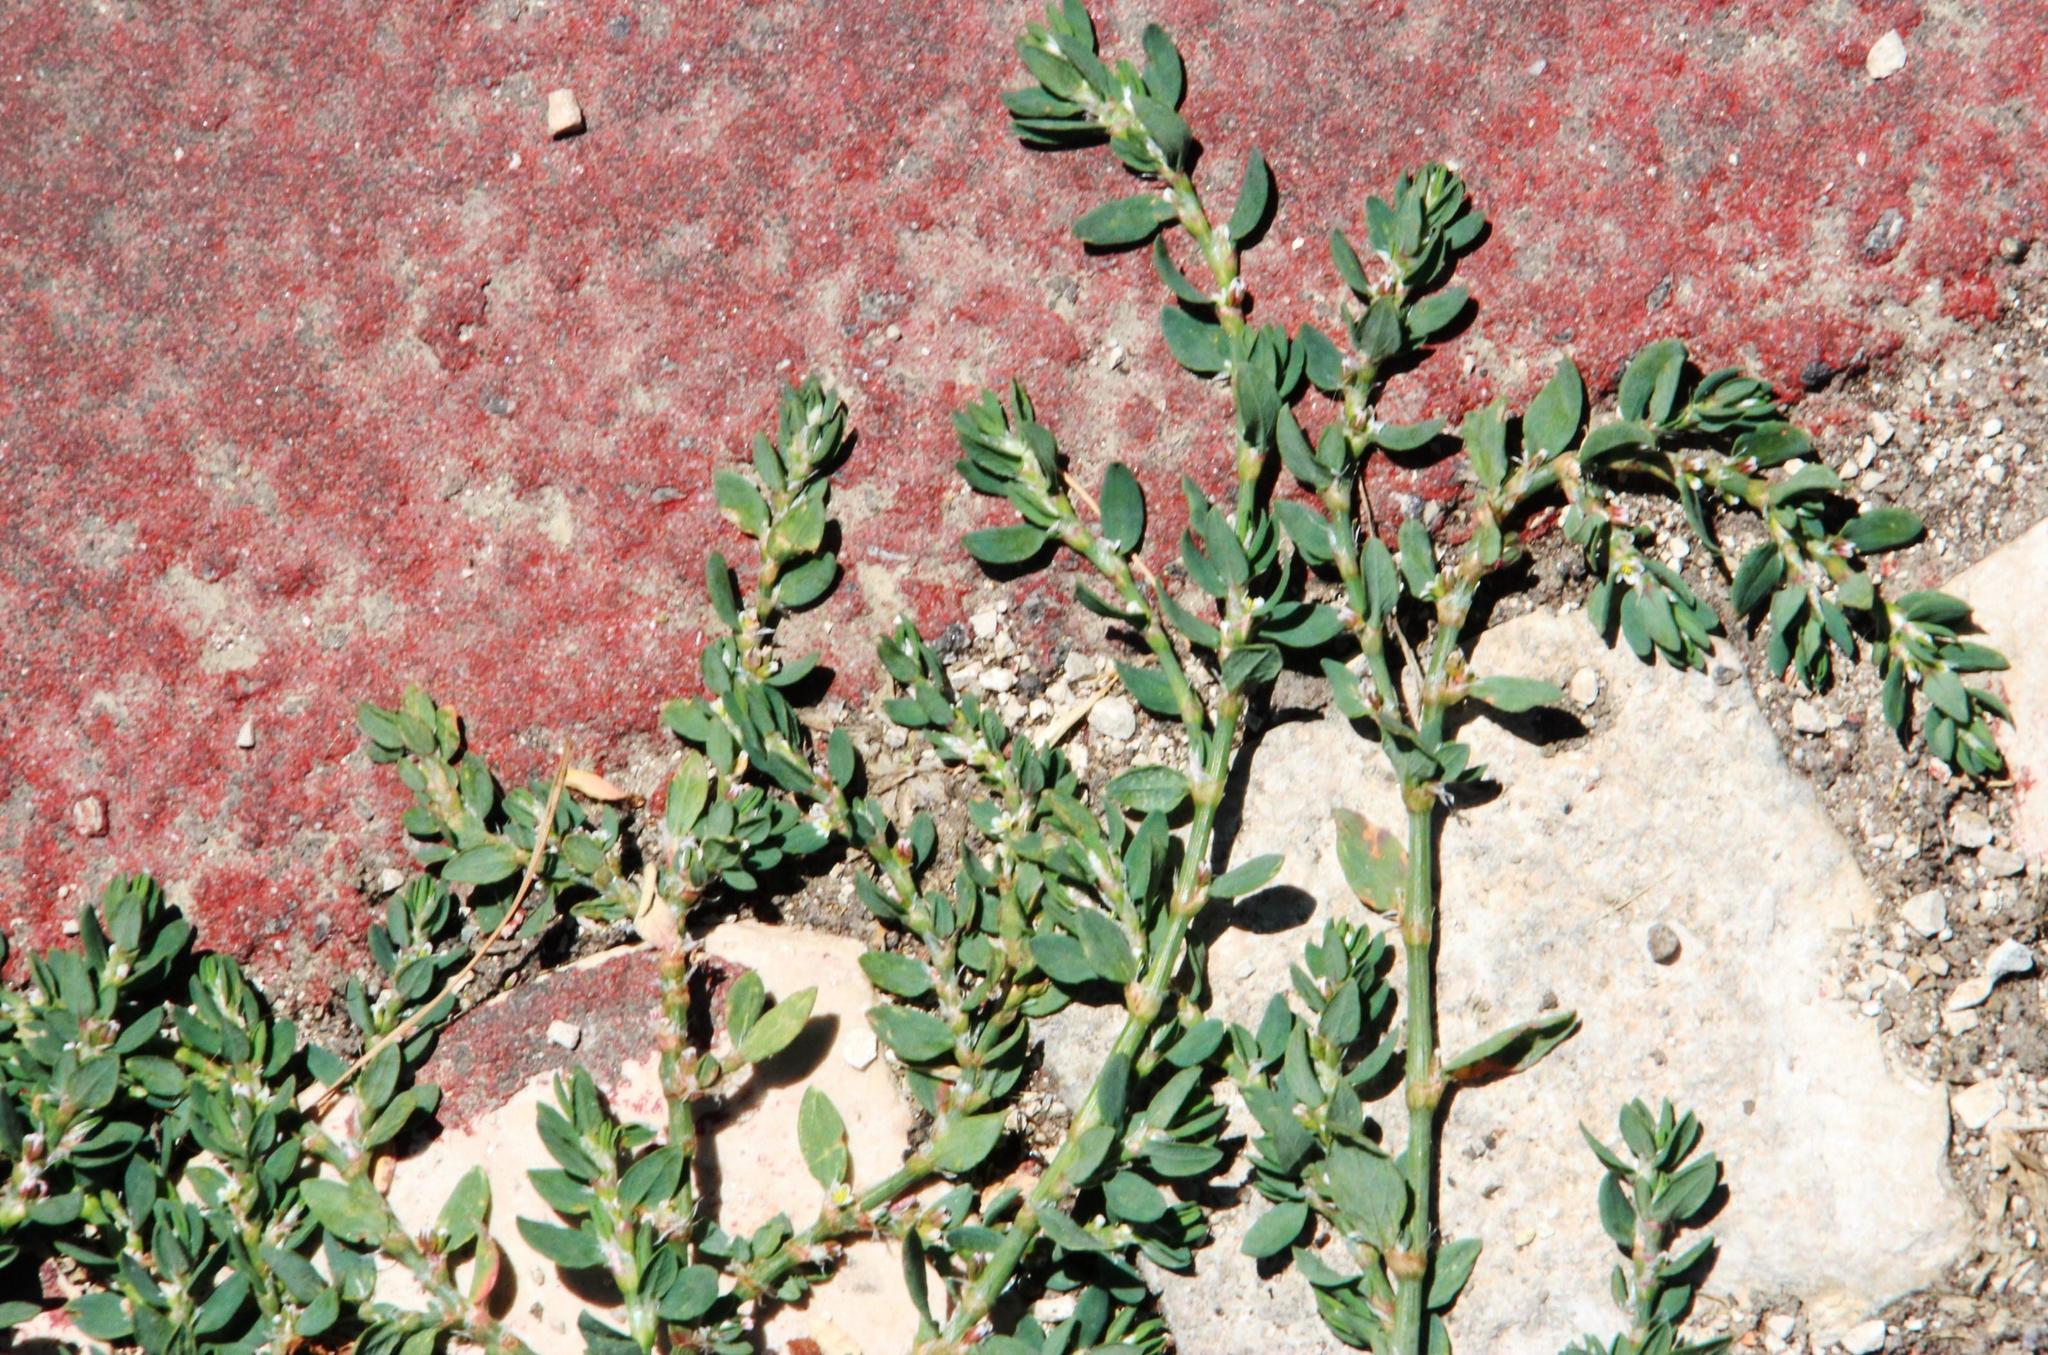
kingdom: Plantae
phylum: Tracheophyta
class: Magnoliopsida
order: Caryophyllales
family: Polygonaceae
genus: Polygonum
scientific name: Polygonum aviculare
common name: Prostrate knotweed
